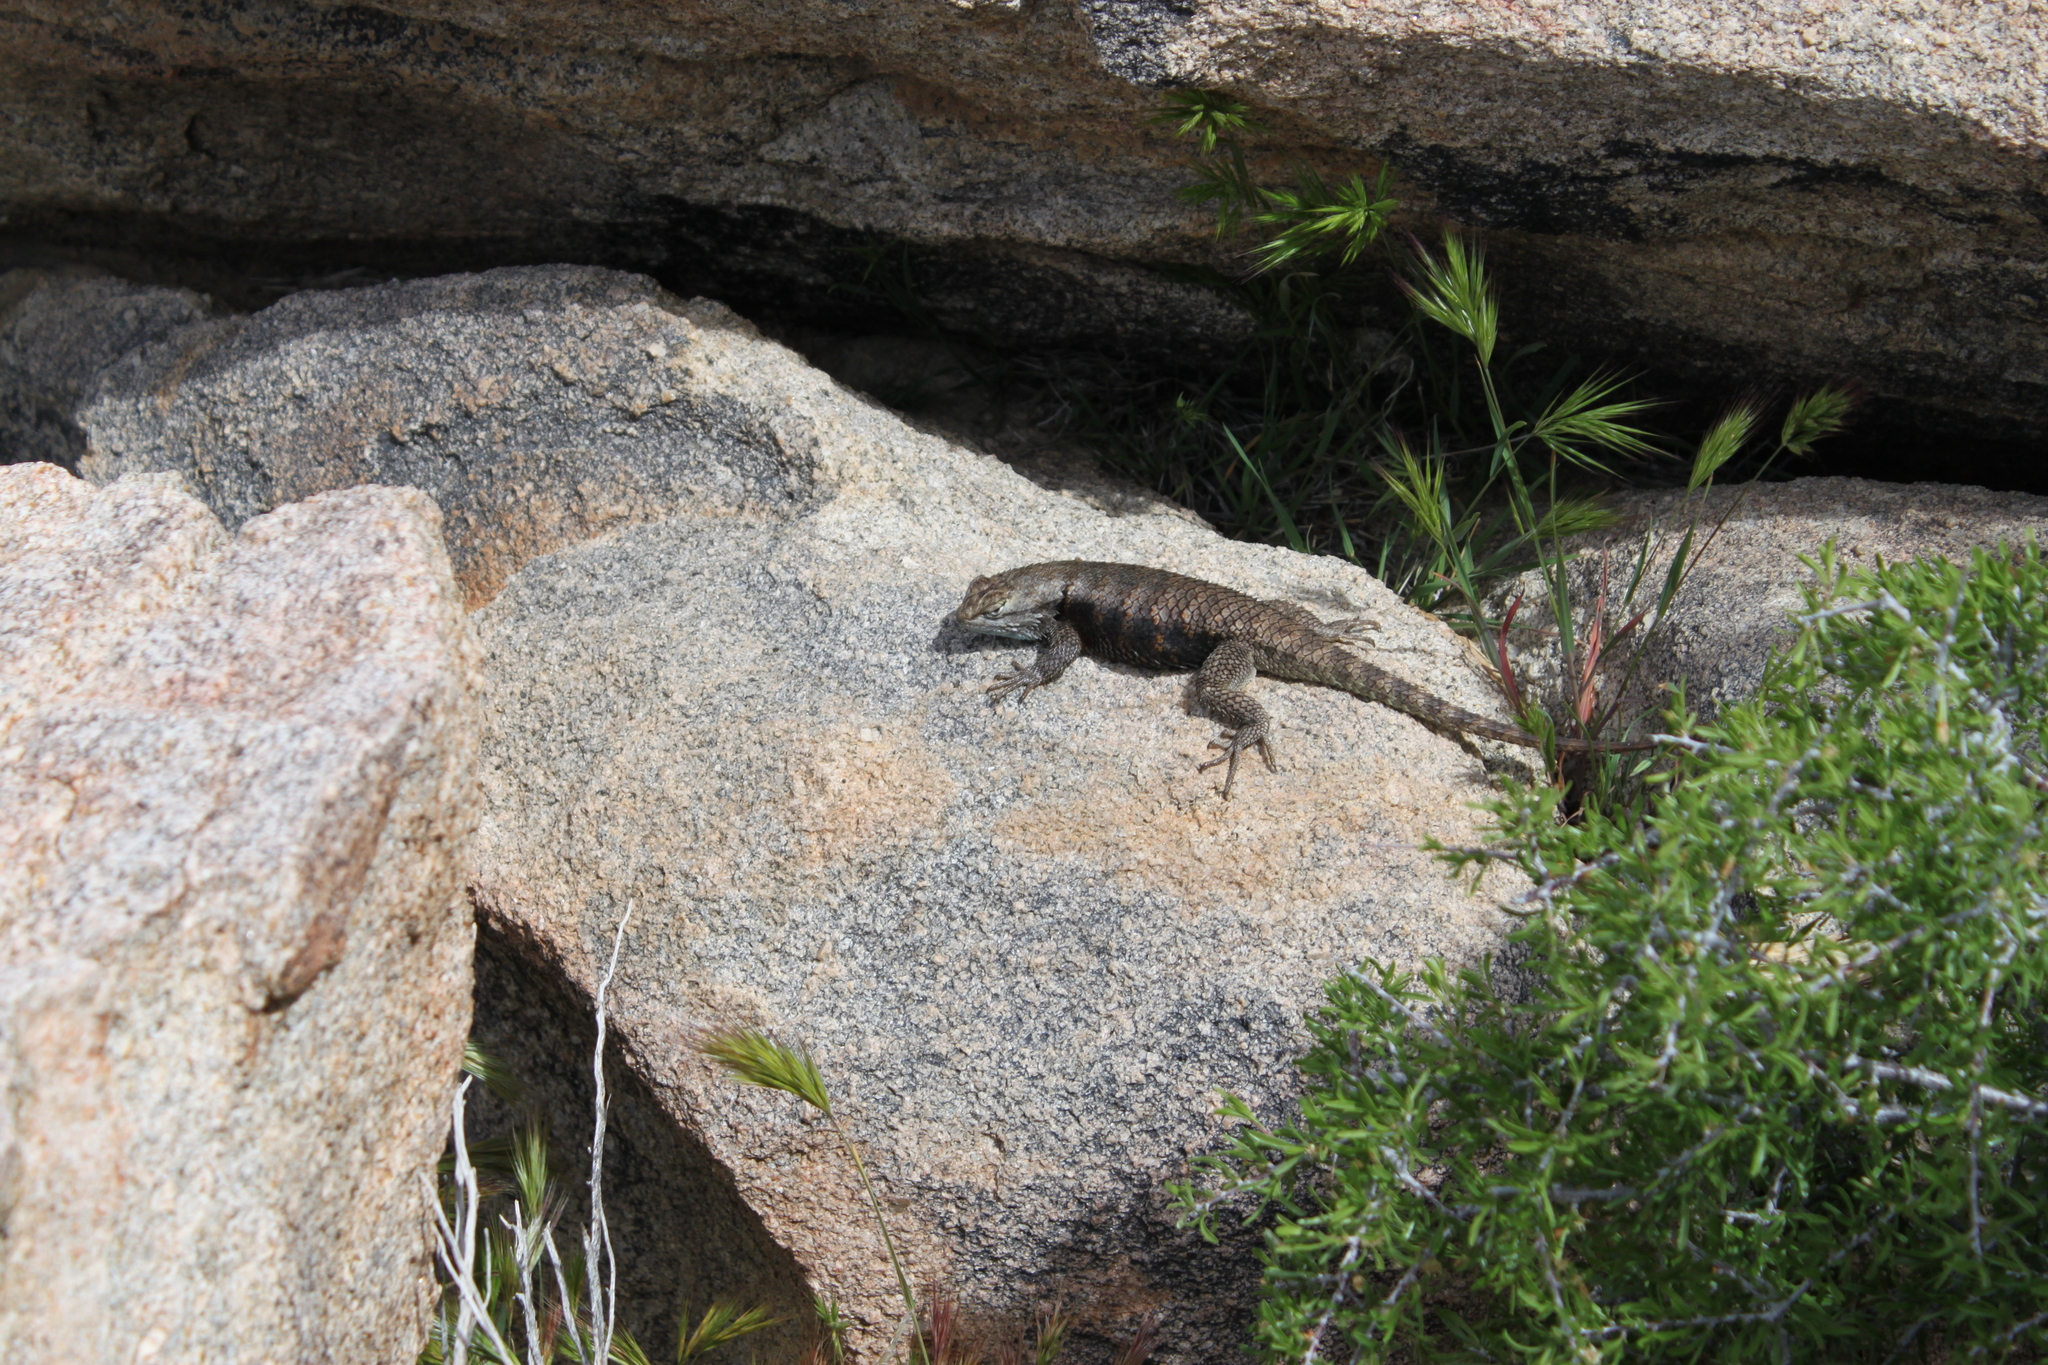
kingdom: Animalia
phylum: Chordata
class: Squamata
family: Phrynosomatidae
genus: Sceloporus
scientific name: Sceloporus magister
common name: Desert spiny lizard
